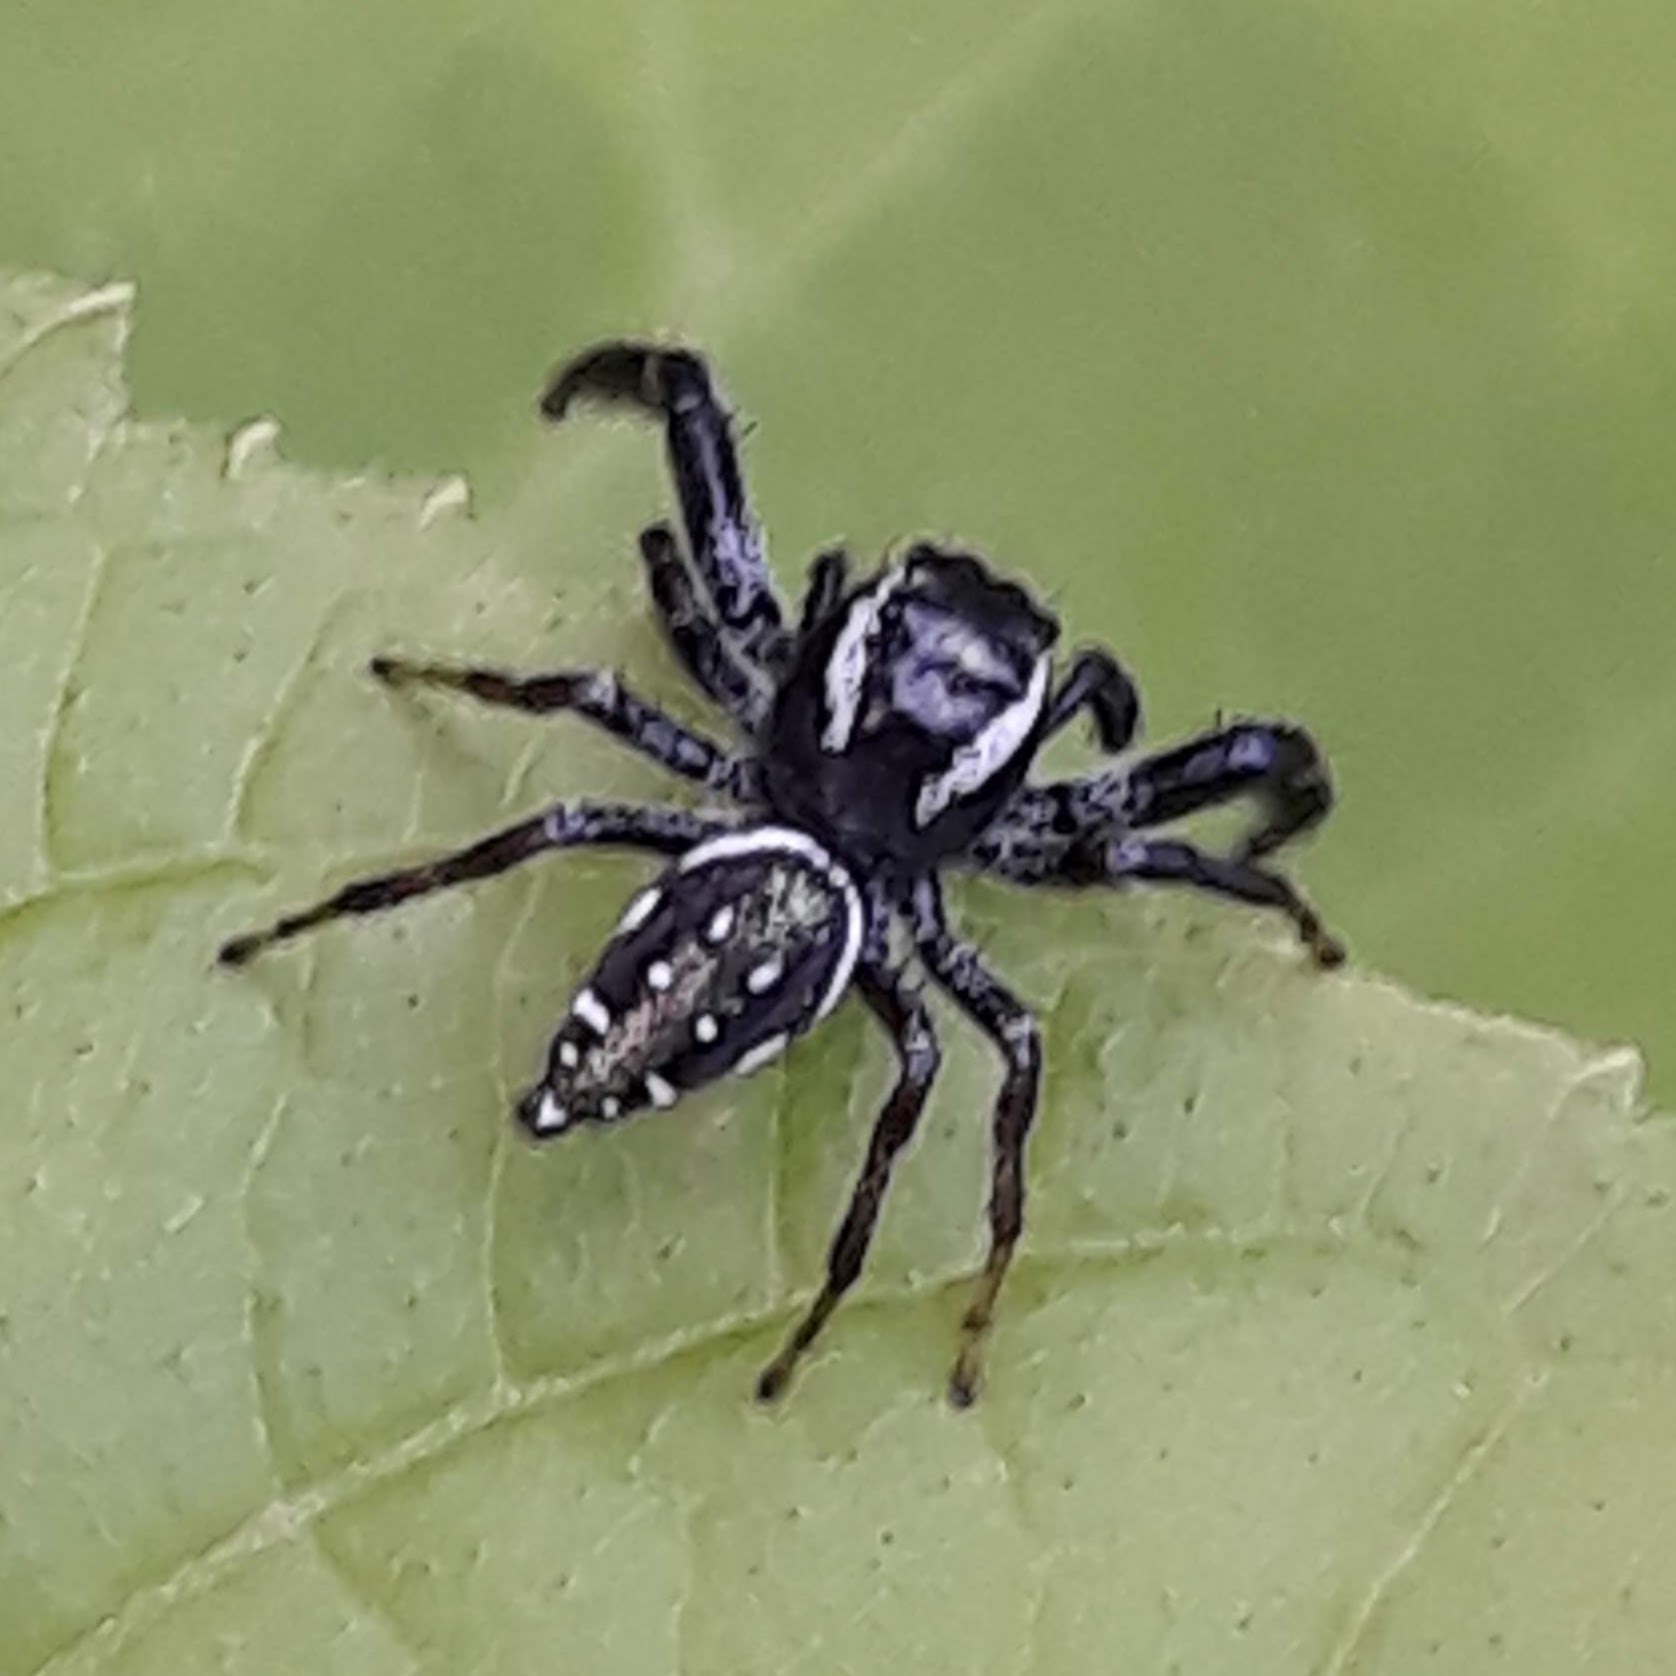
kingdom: Animalia
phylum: Arthropoda
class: Arachnida
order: Araneae
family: Salticidae
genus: Paraphidippus
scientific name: Paraphidippus aurantius
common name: Jumping spiders
